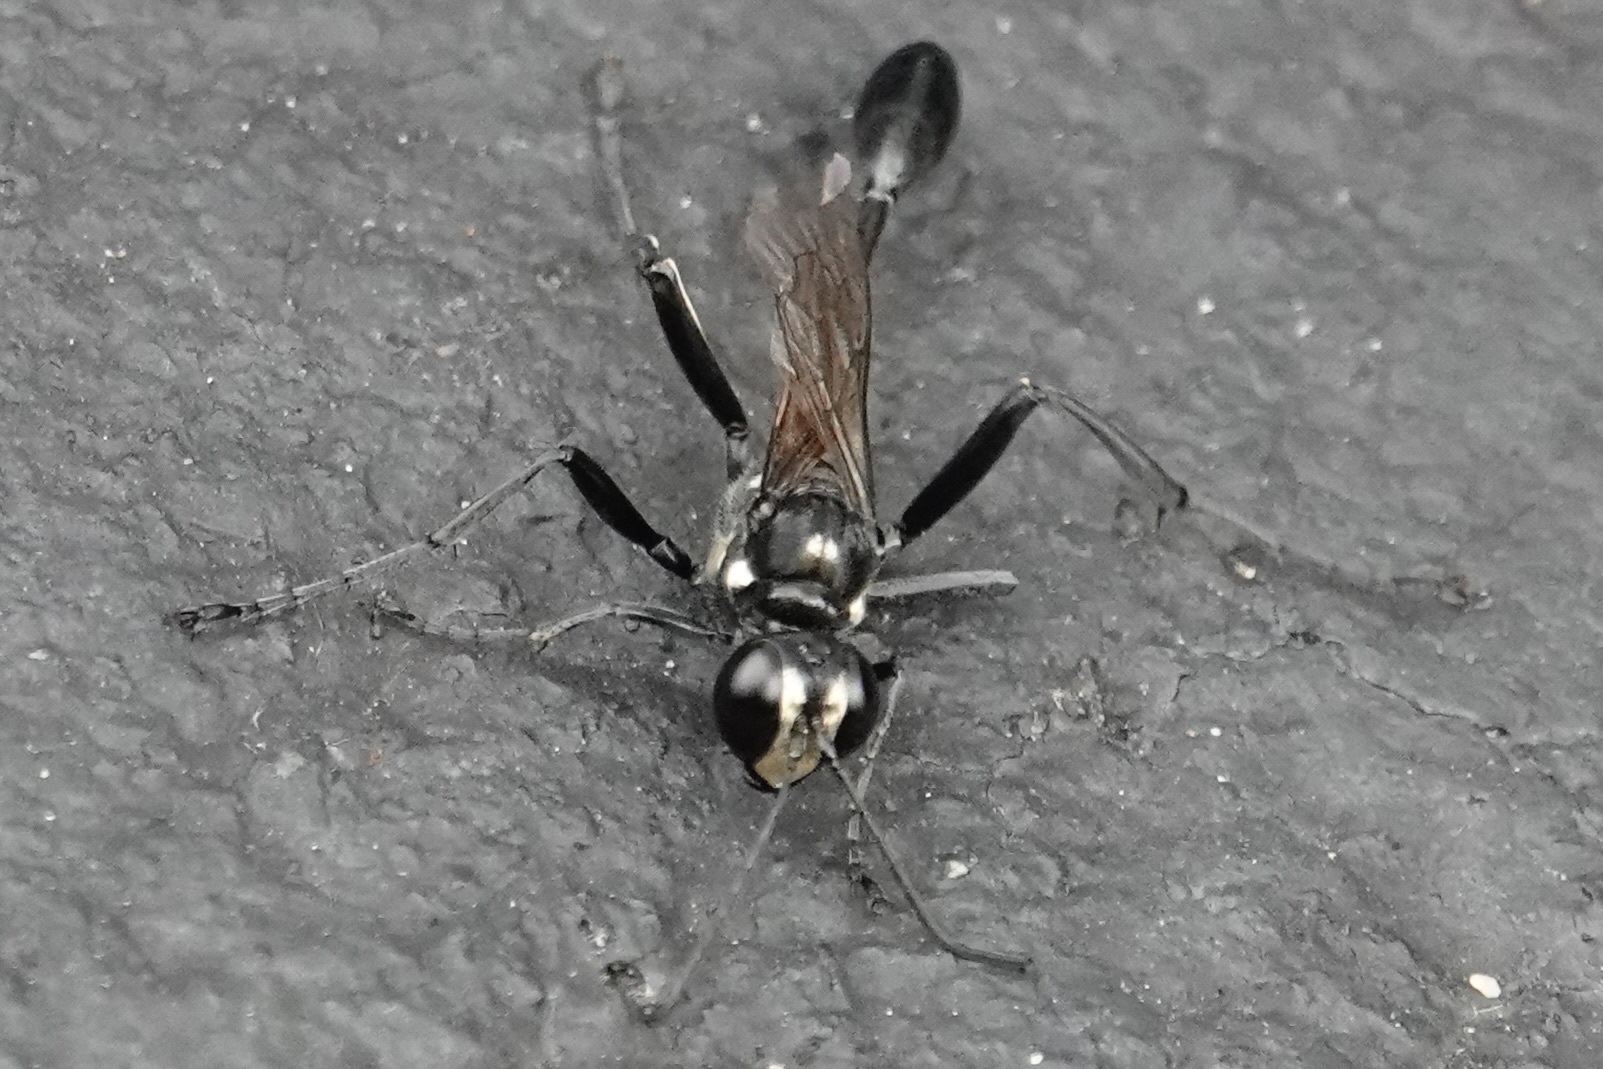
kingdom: Animalia
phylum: Arthropoda
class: Insecta
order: Hymenoptera
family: Sphecidae
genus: Eremnophila
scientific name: Eremnophila aureonotata
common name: Gold-marked thread-waisted wasp
